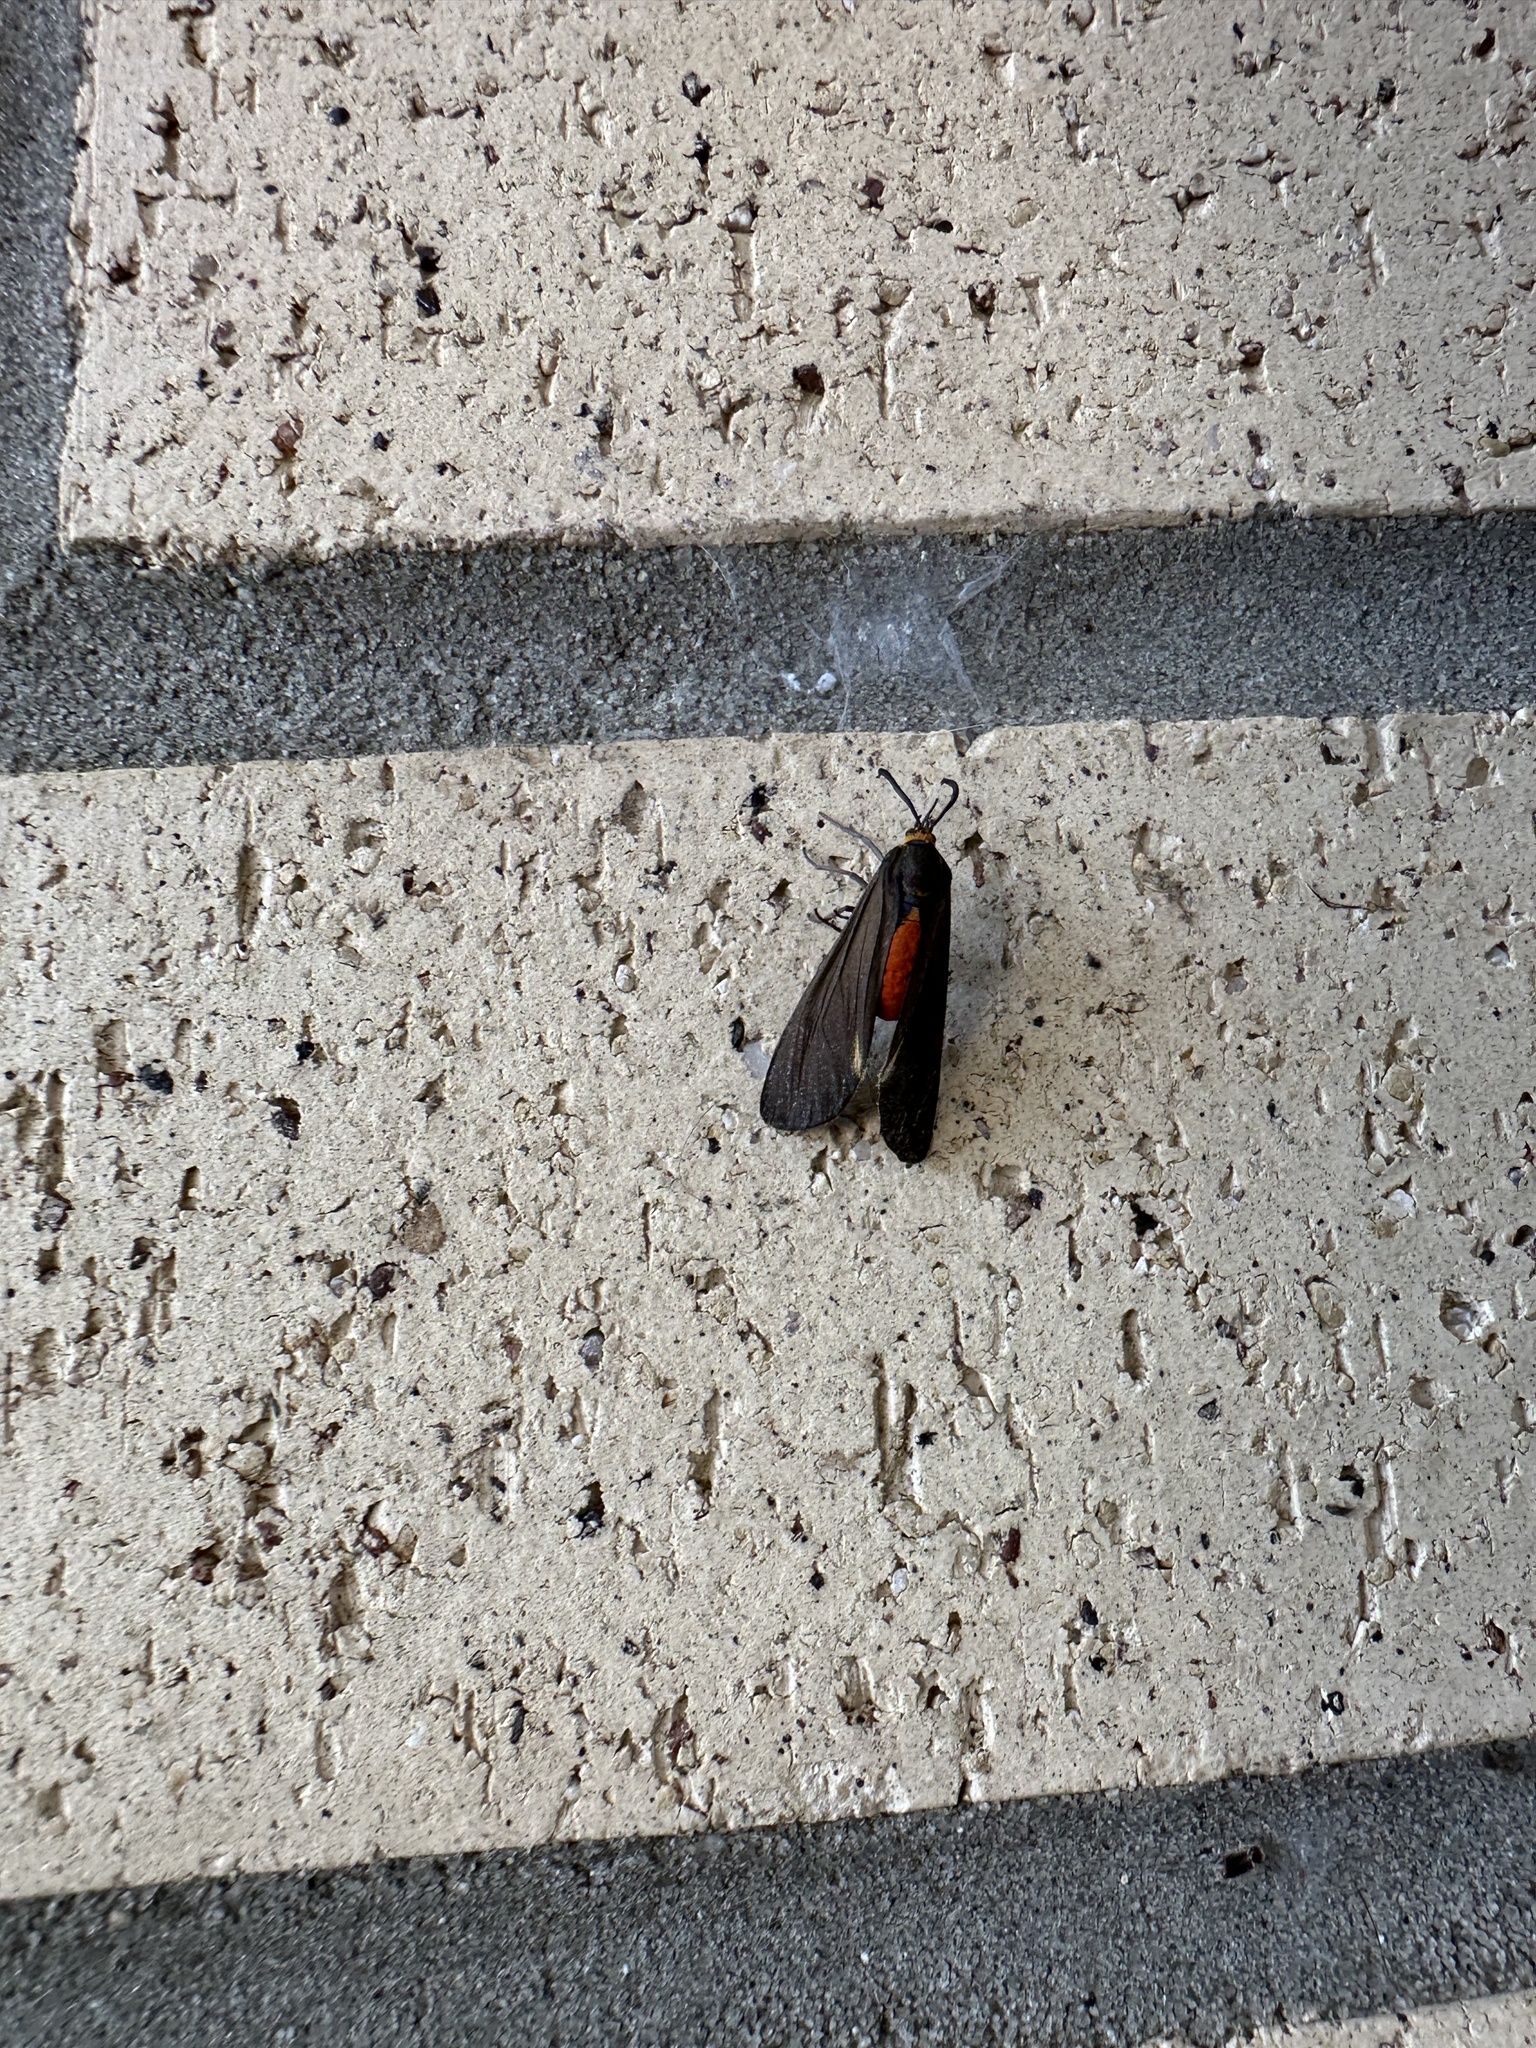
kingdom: Animalia
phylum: Arthropoda
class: Insecta
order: Lepidoptera
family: Erebidae
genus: Dahana
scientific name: Dahana atripennis
